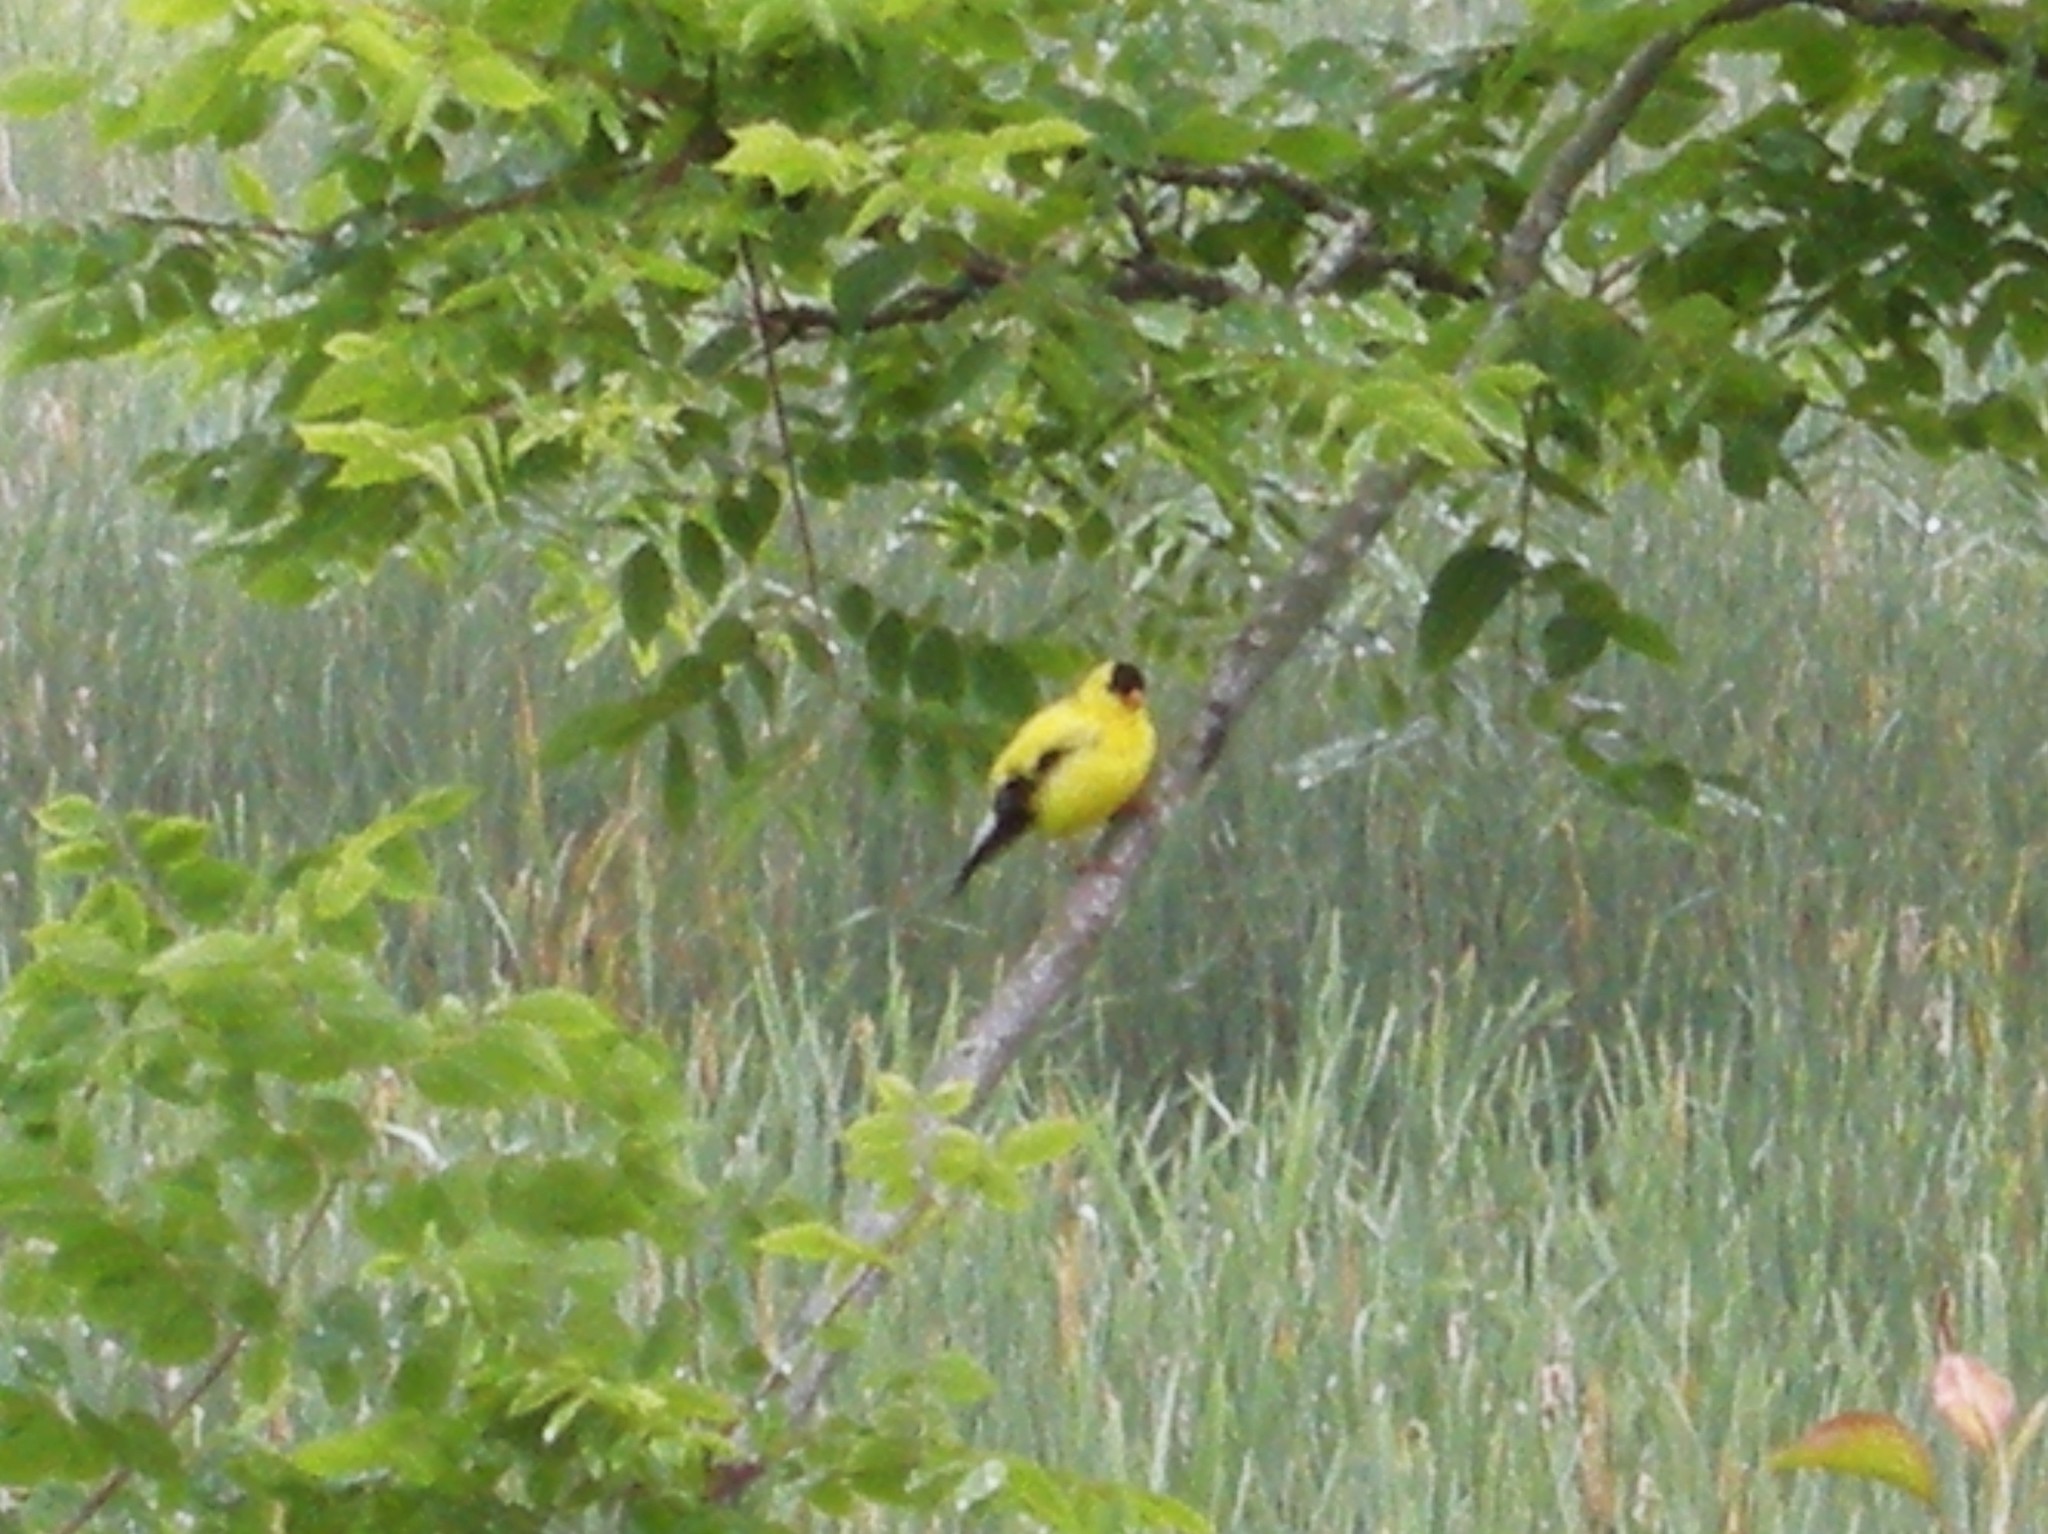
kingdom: Animalia
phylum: Chordata
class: Aves
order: Passeriformes
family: Fringillidae
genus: Spinus
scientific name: Spinus tristis
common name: American goldfinch
